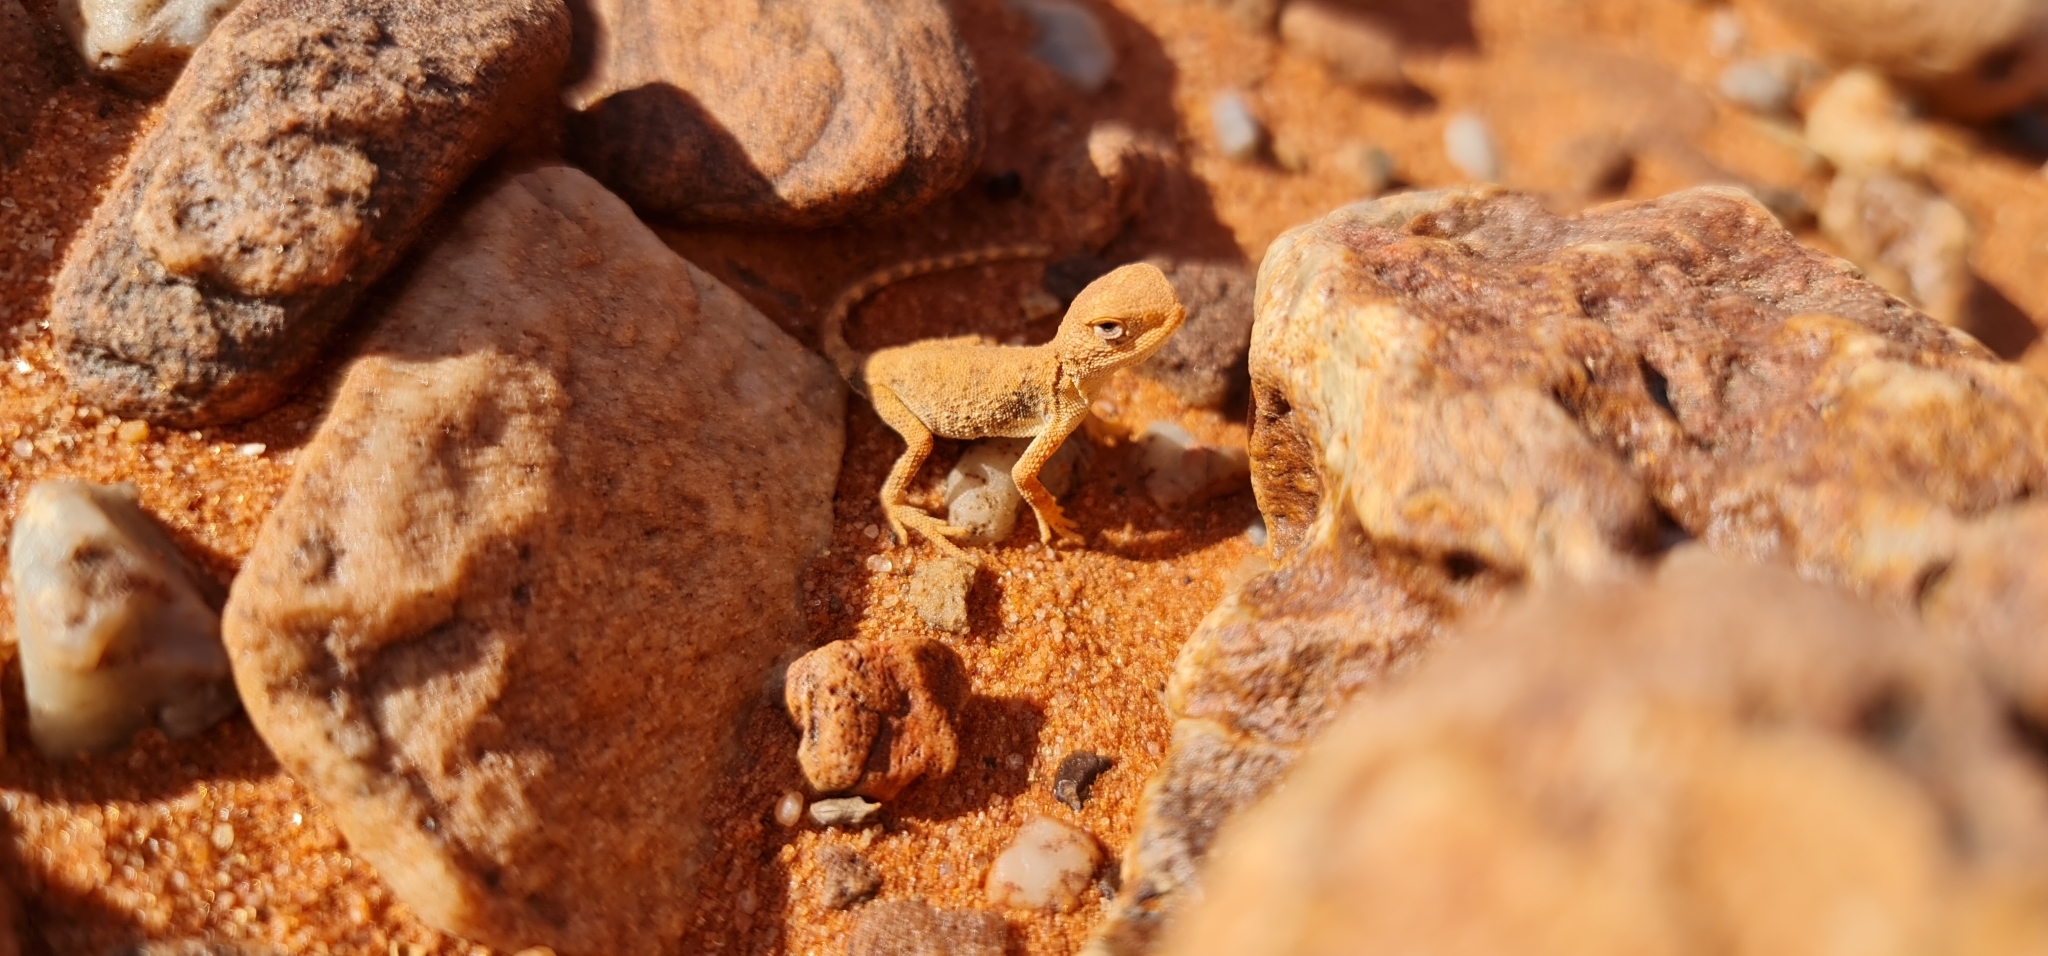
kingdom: Animalia
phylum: Chordata
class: Squamata
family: Agamidae
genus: Tympanocryptis
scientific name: Tympanocryptis intima
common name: Gibber earless dragon
